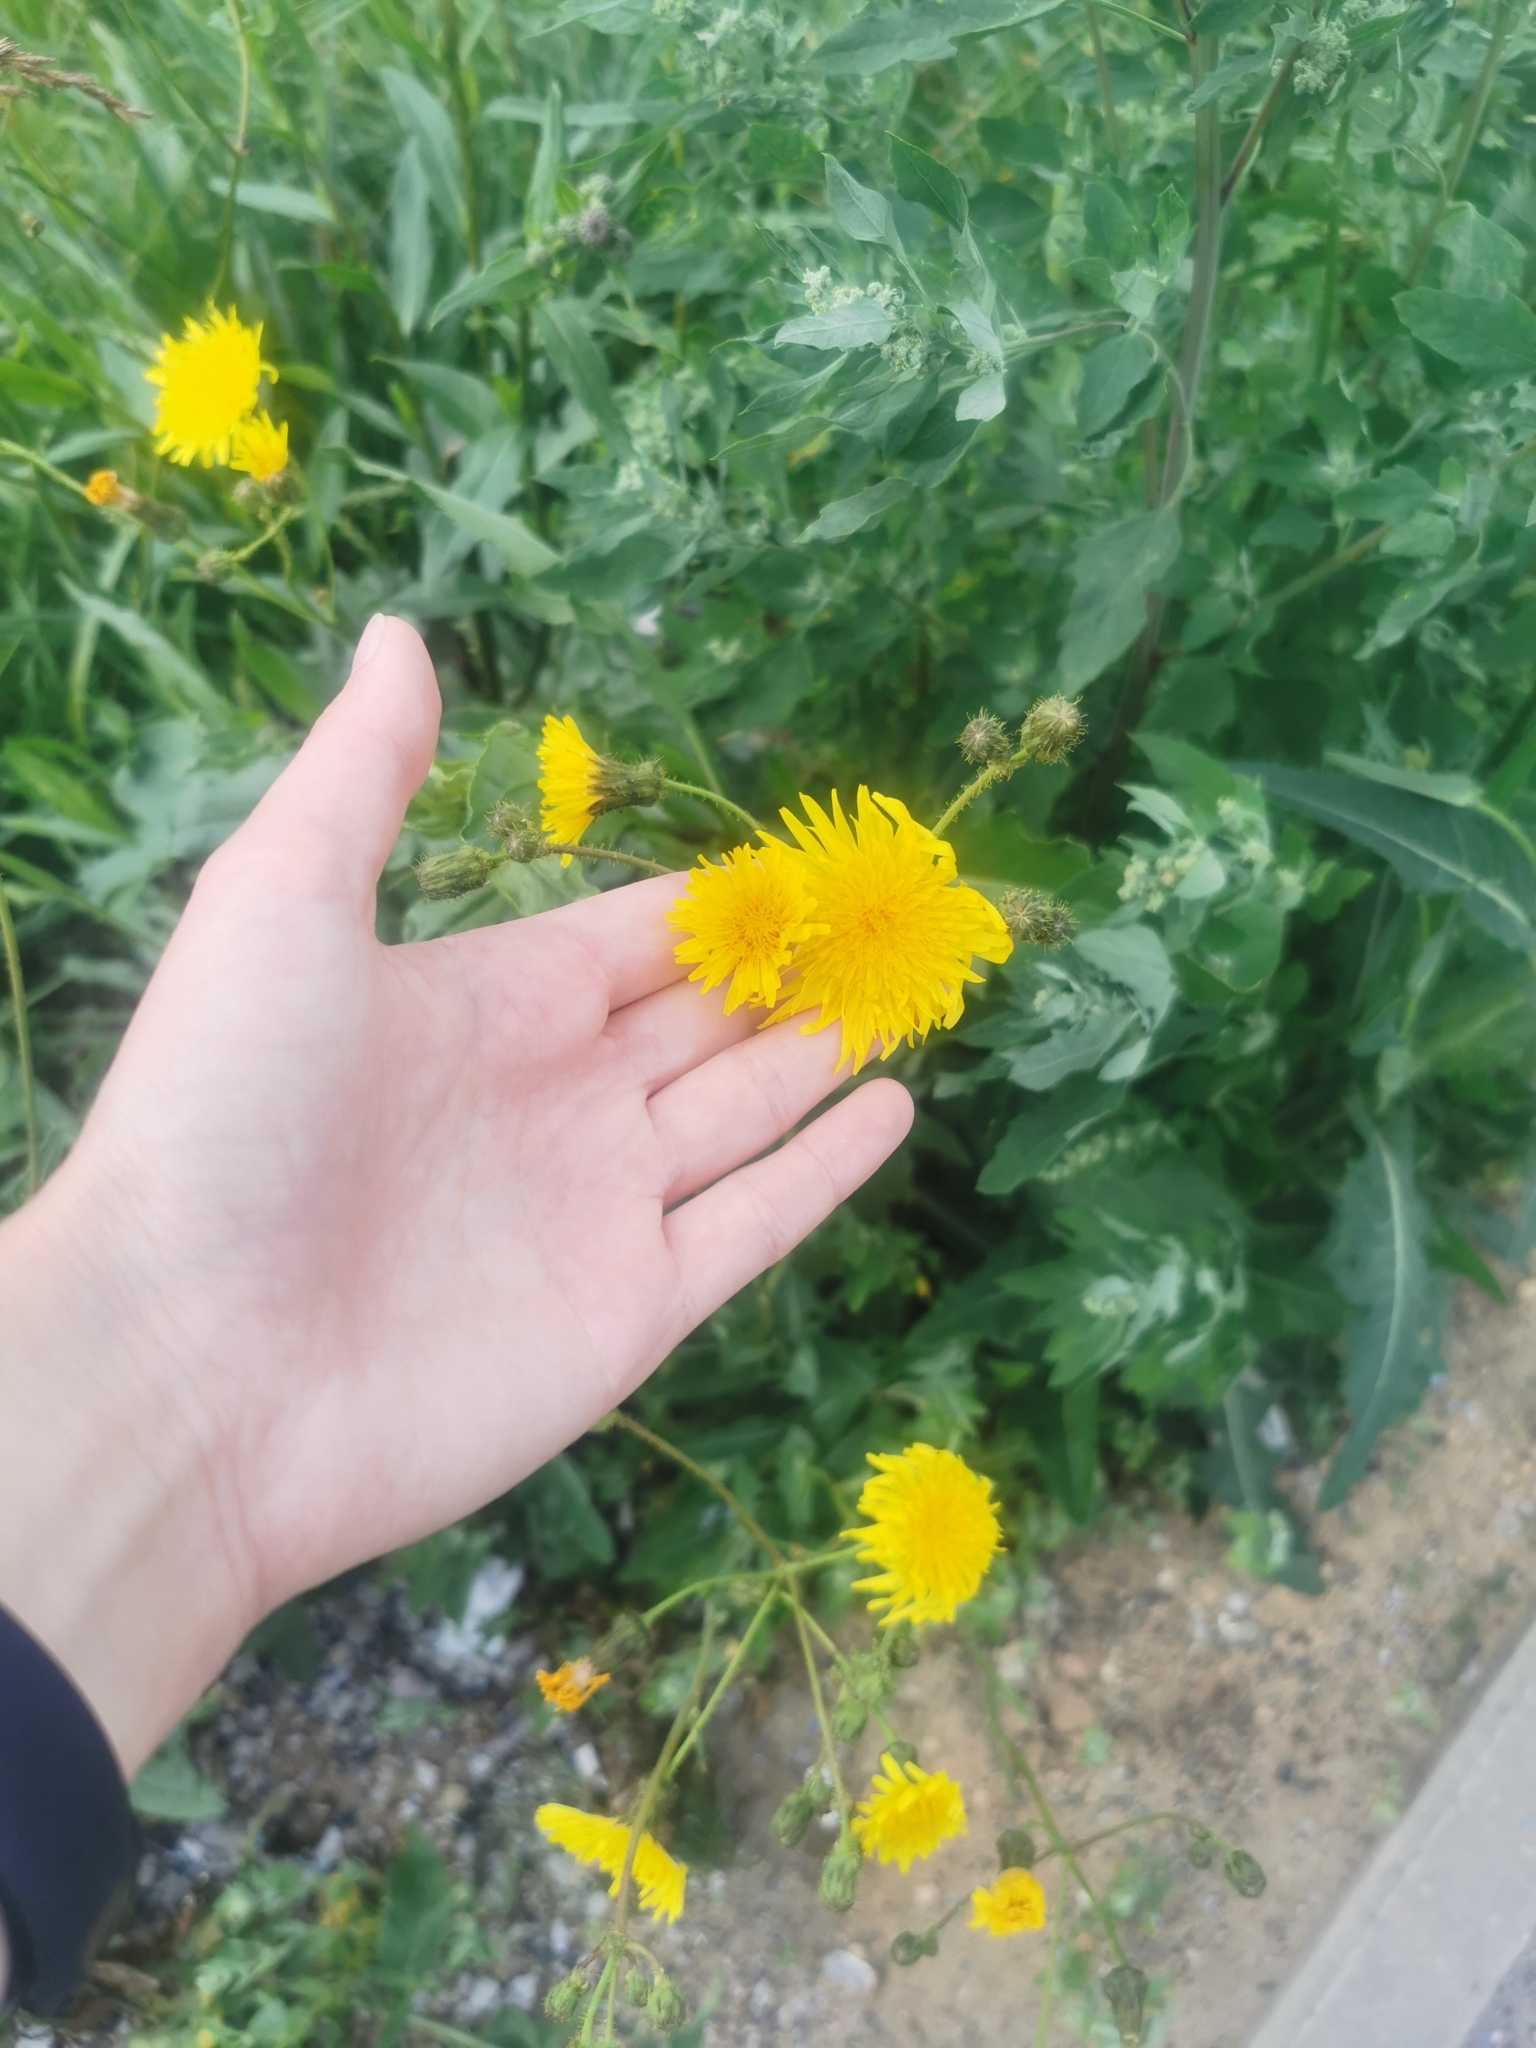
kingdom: Plantae
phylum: Tracheophyta
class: Magnoliopsida
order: Asterales
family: Asteraceae
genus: Sonchus
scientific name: Sonchus arvensis
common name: Perennial sow-thistle
